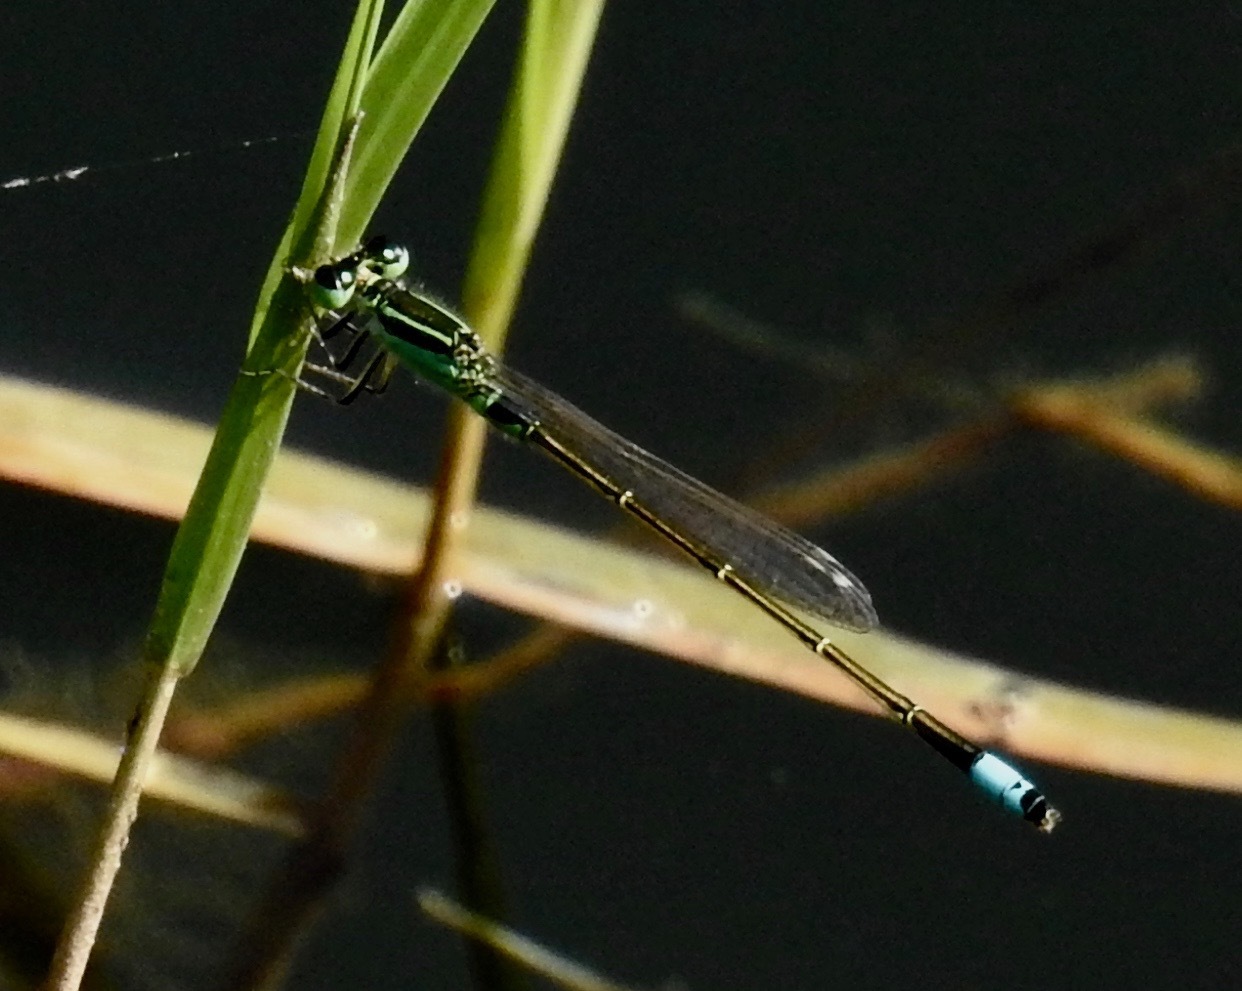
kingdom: Animalia
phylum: Arthropoda
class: Insecta
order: Odonata
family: Coenagrionidae
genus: Ischnura
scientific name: Ischnura senegalensis
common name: Tropical bluetail
